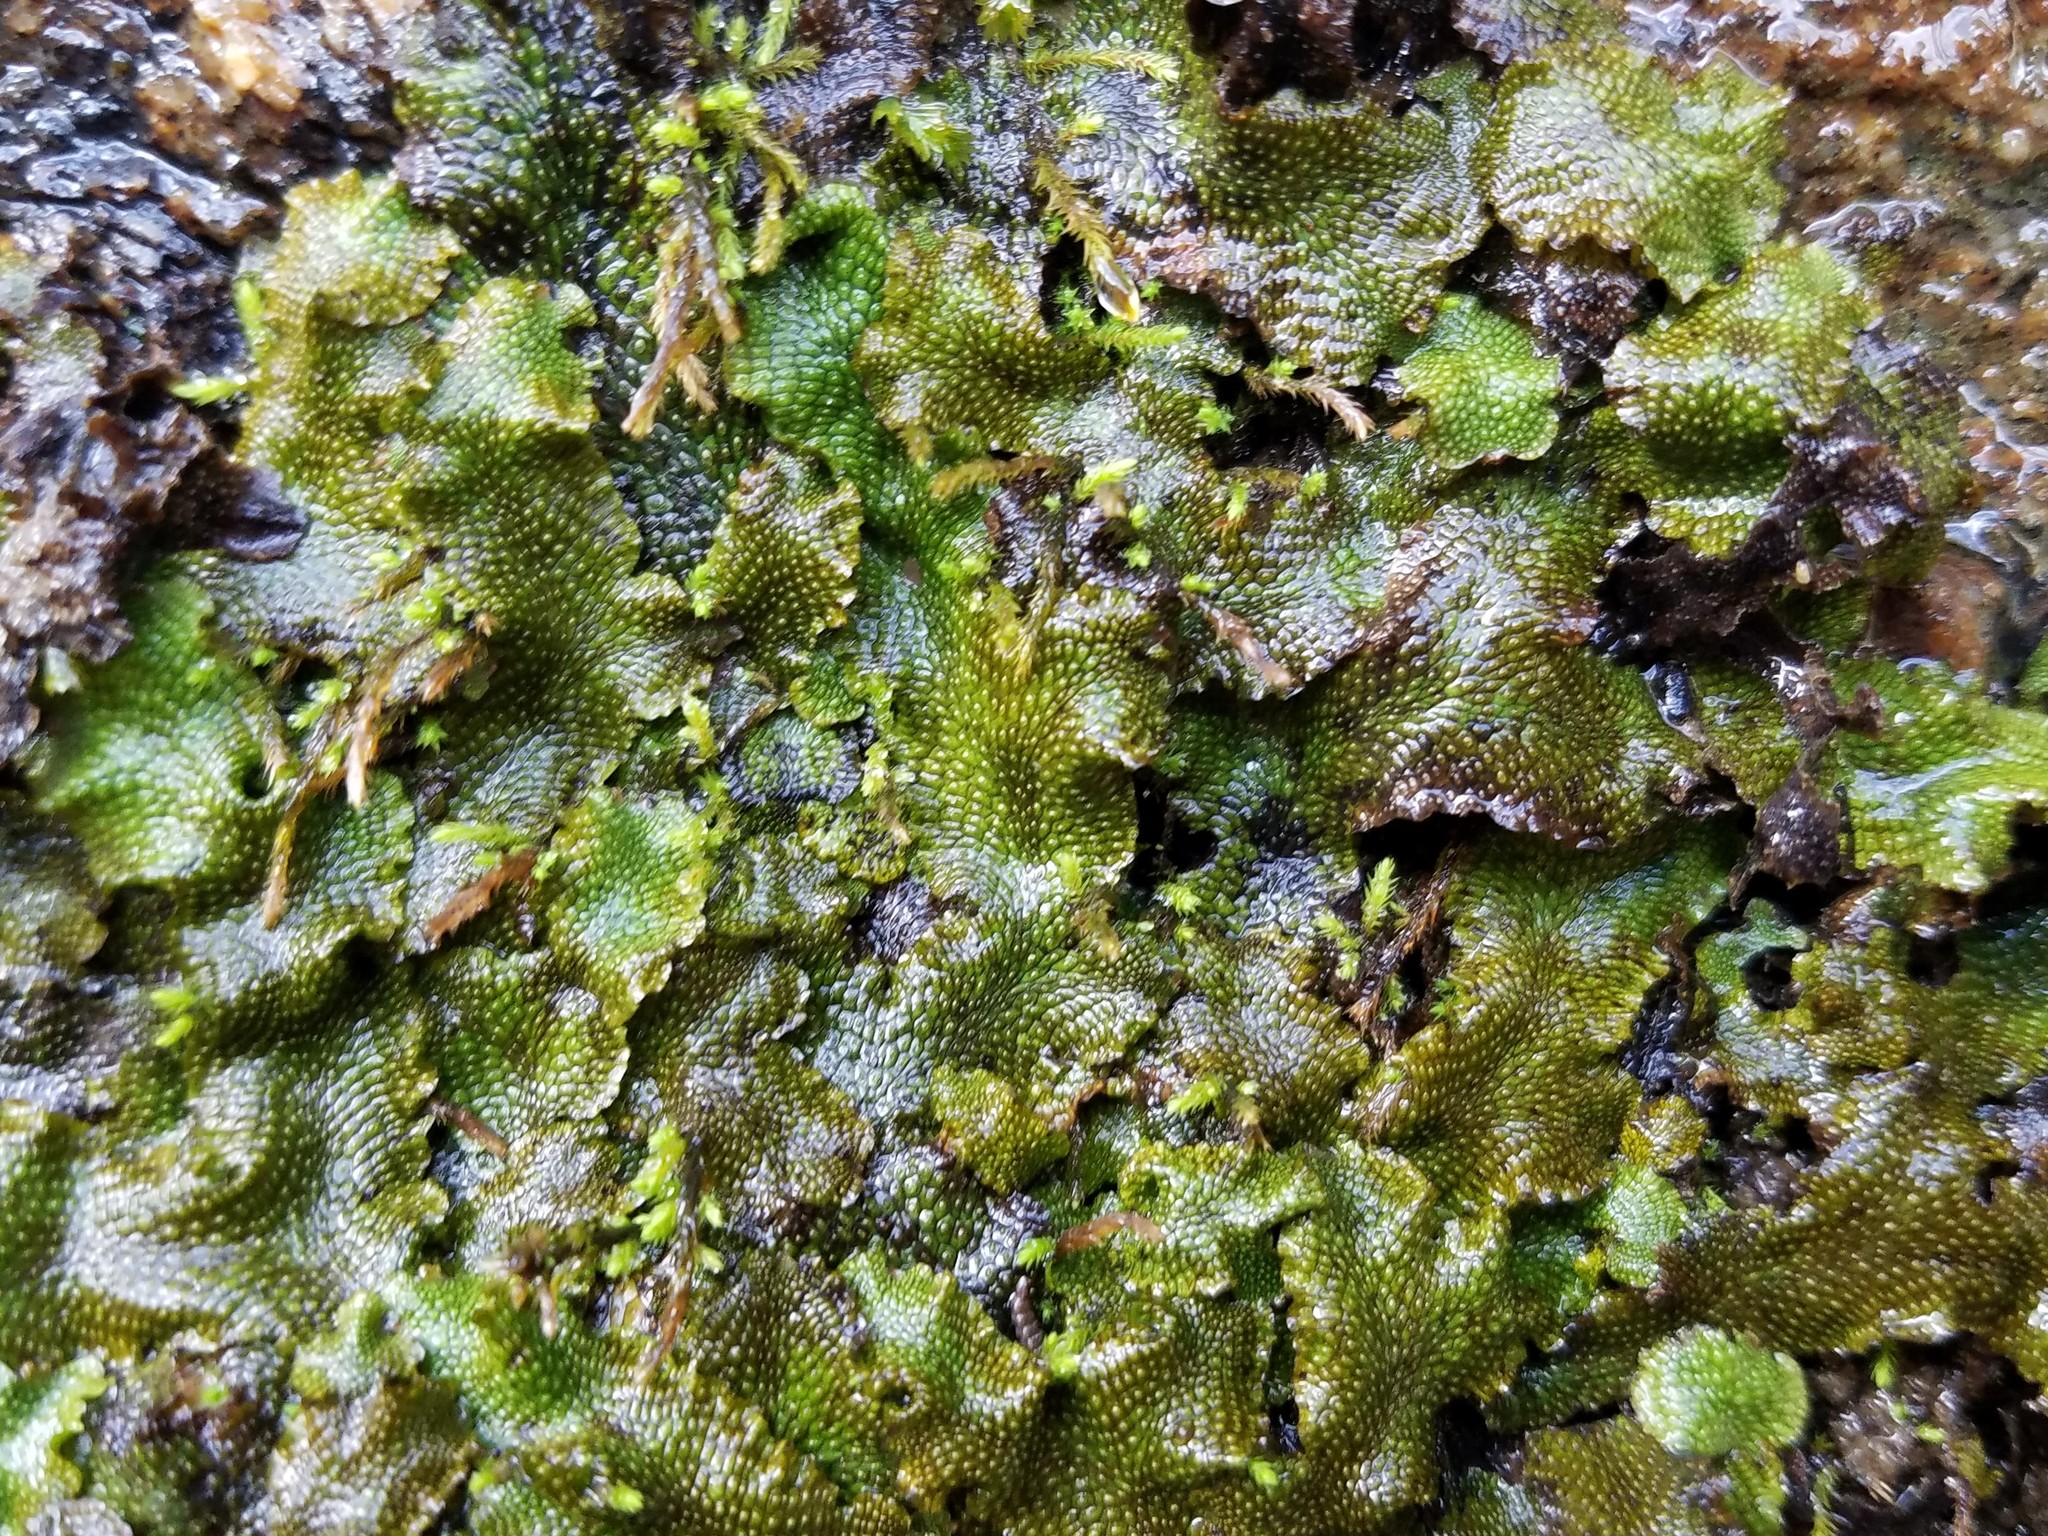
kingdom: Plantae
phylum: Marchantiophyta
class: Marchantiopsida
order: Marchantiales
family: Conocephalaceae
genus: Conocephalum
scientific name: Conocephalum salebrosum
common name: Cat-tongue liverwort
